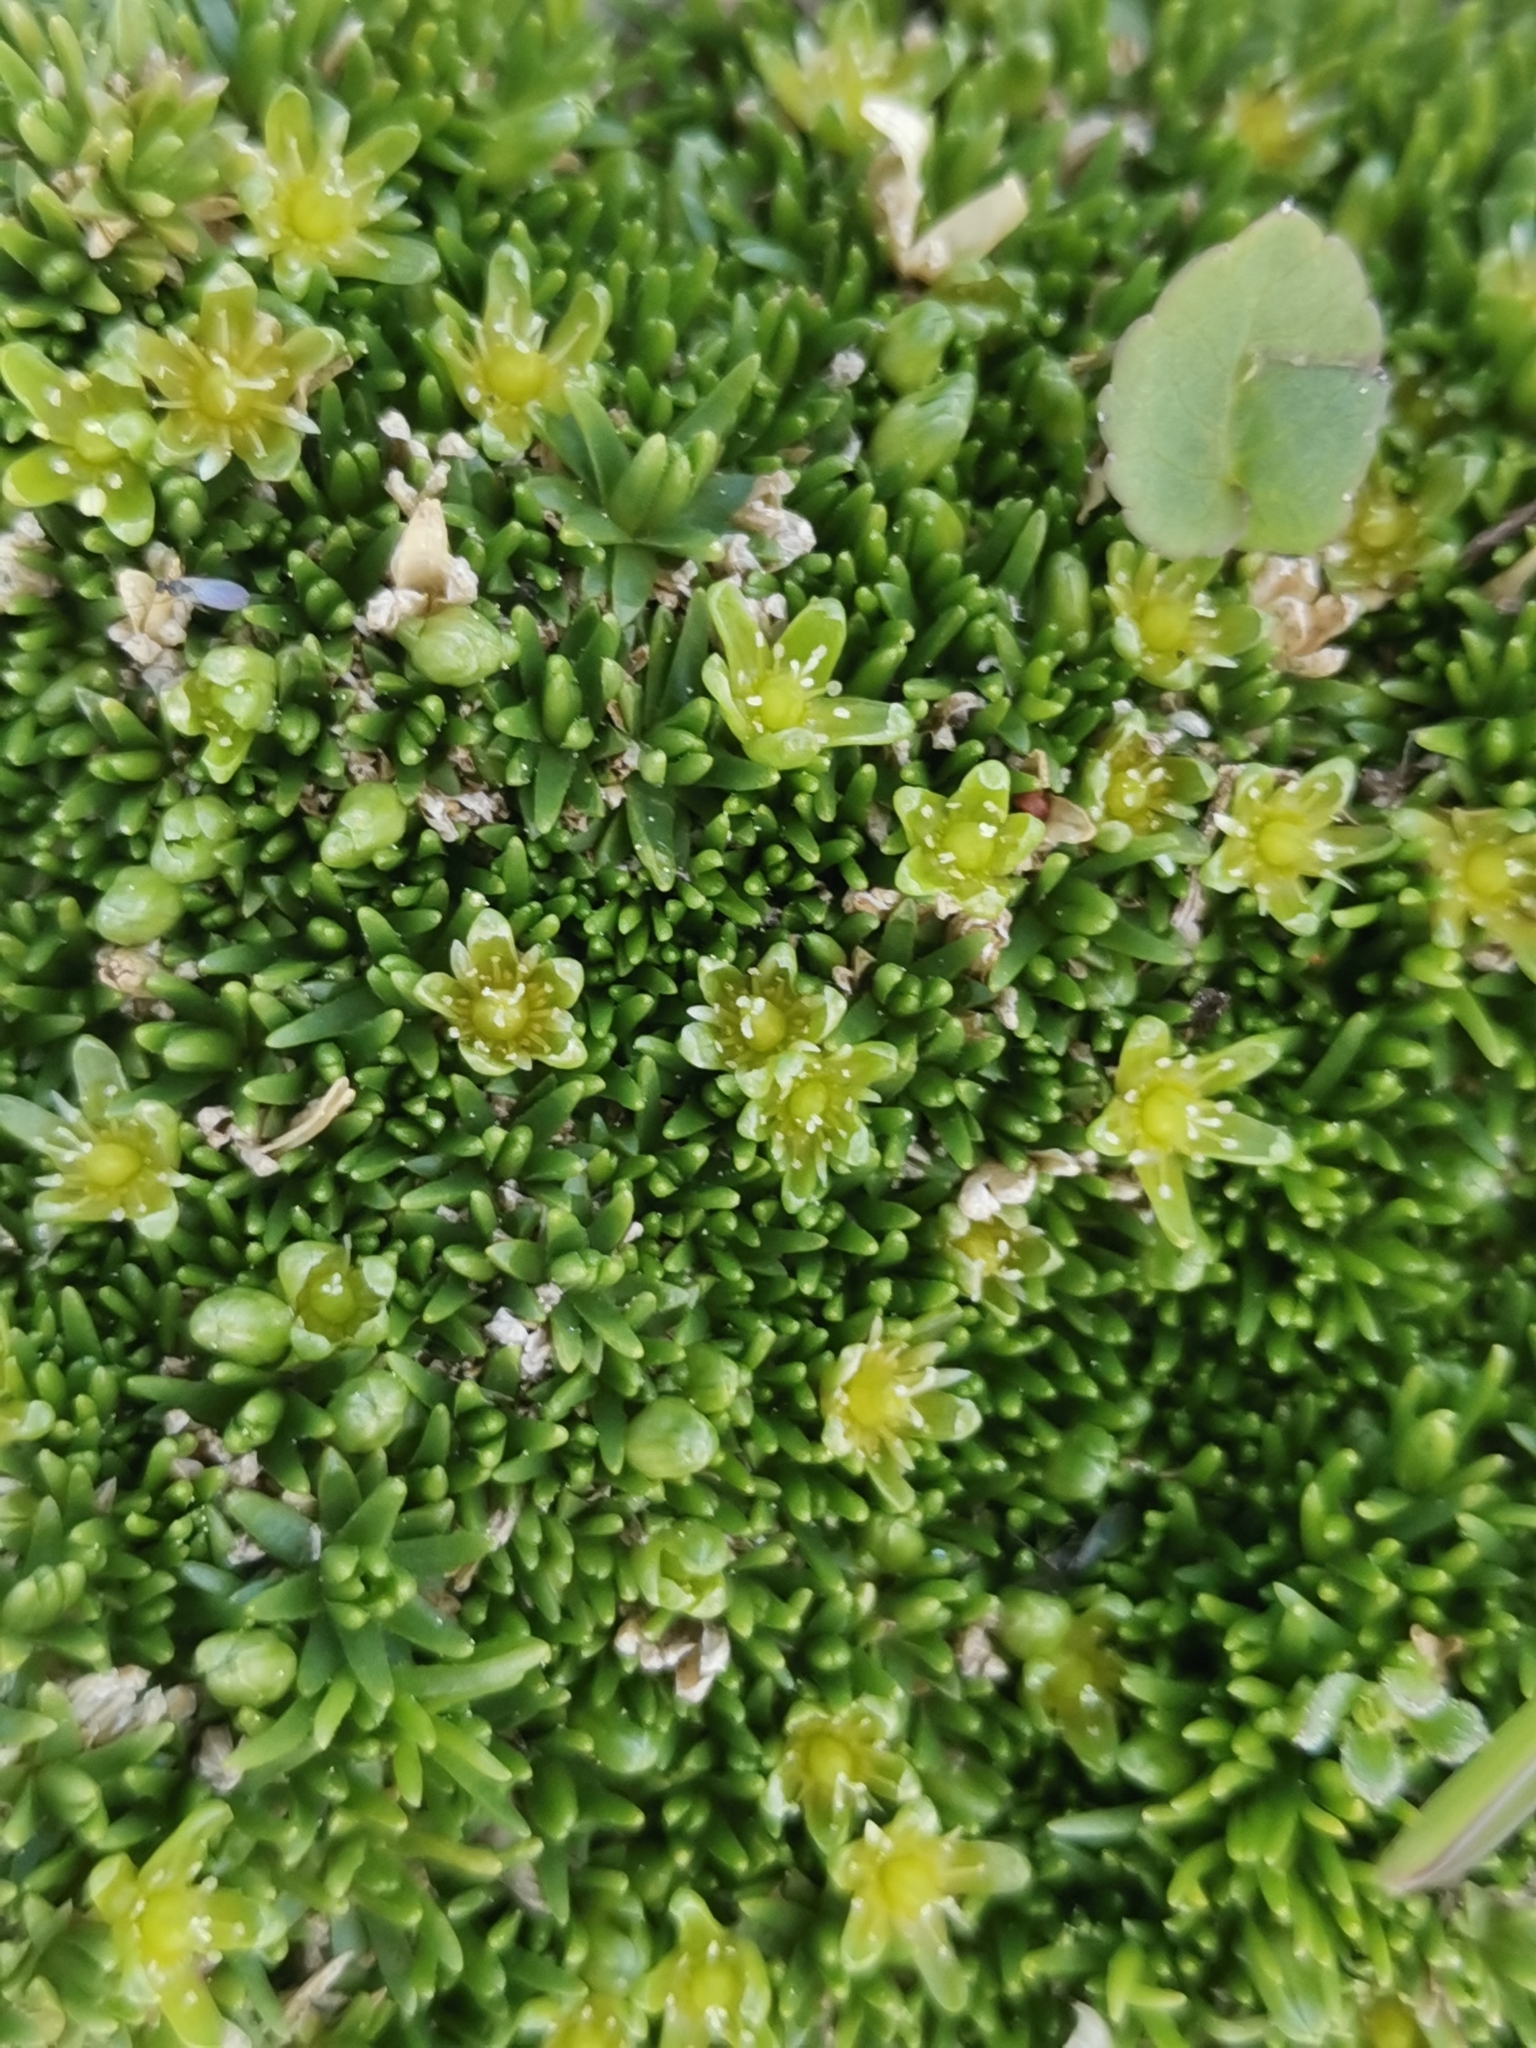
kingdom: Plantae
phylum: Tracheophyta
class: Magnoliopsida
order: Caryophyllales
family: Caryophyllaceae
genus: Cherleria
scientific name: Cherleria sedoides
